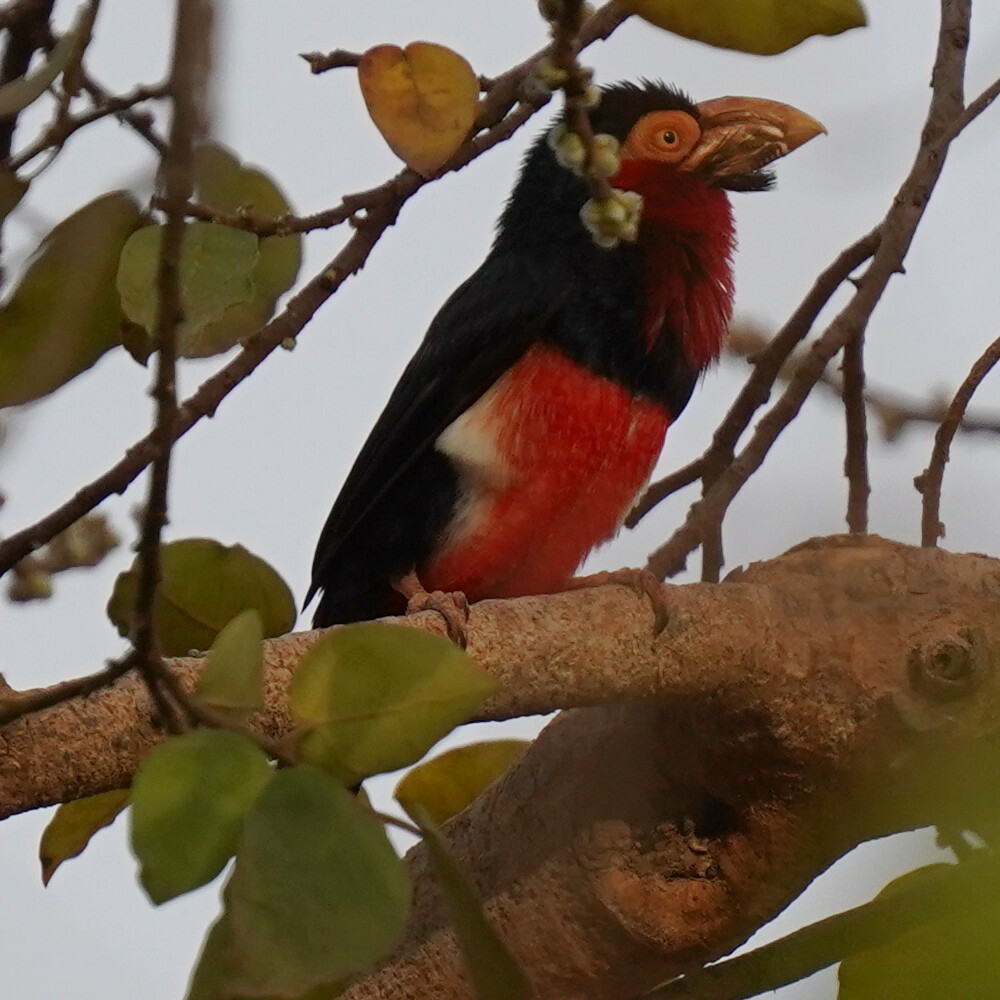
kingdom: Animalia
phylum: Chordata
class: Aves
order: Piciformes
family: Lybiidae
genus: Lybius
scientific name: Lybius dubius
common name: Bearded barbet
